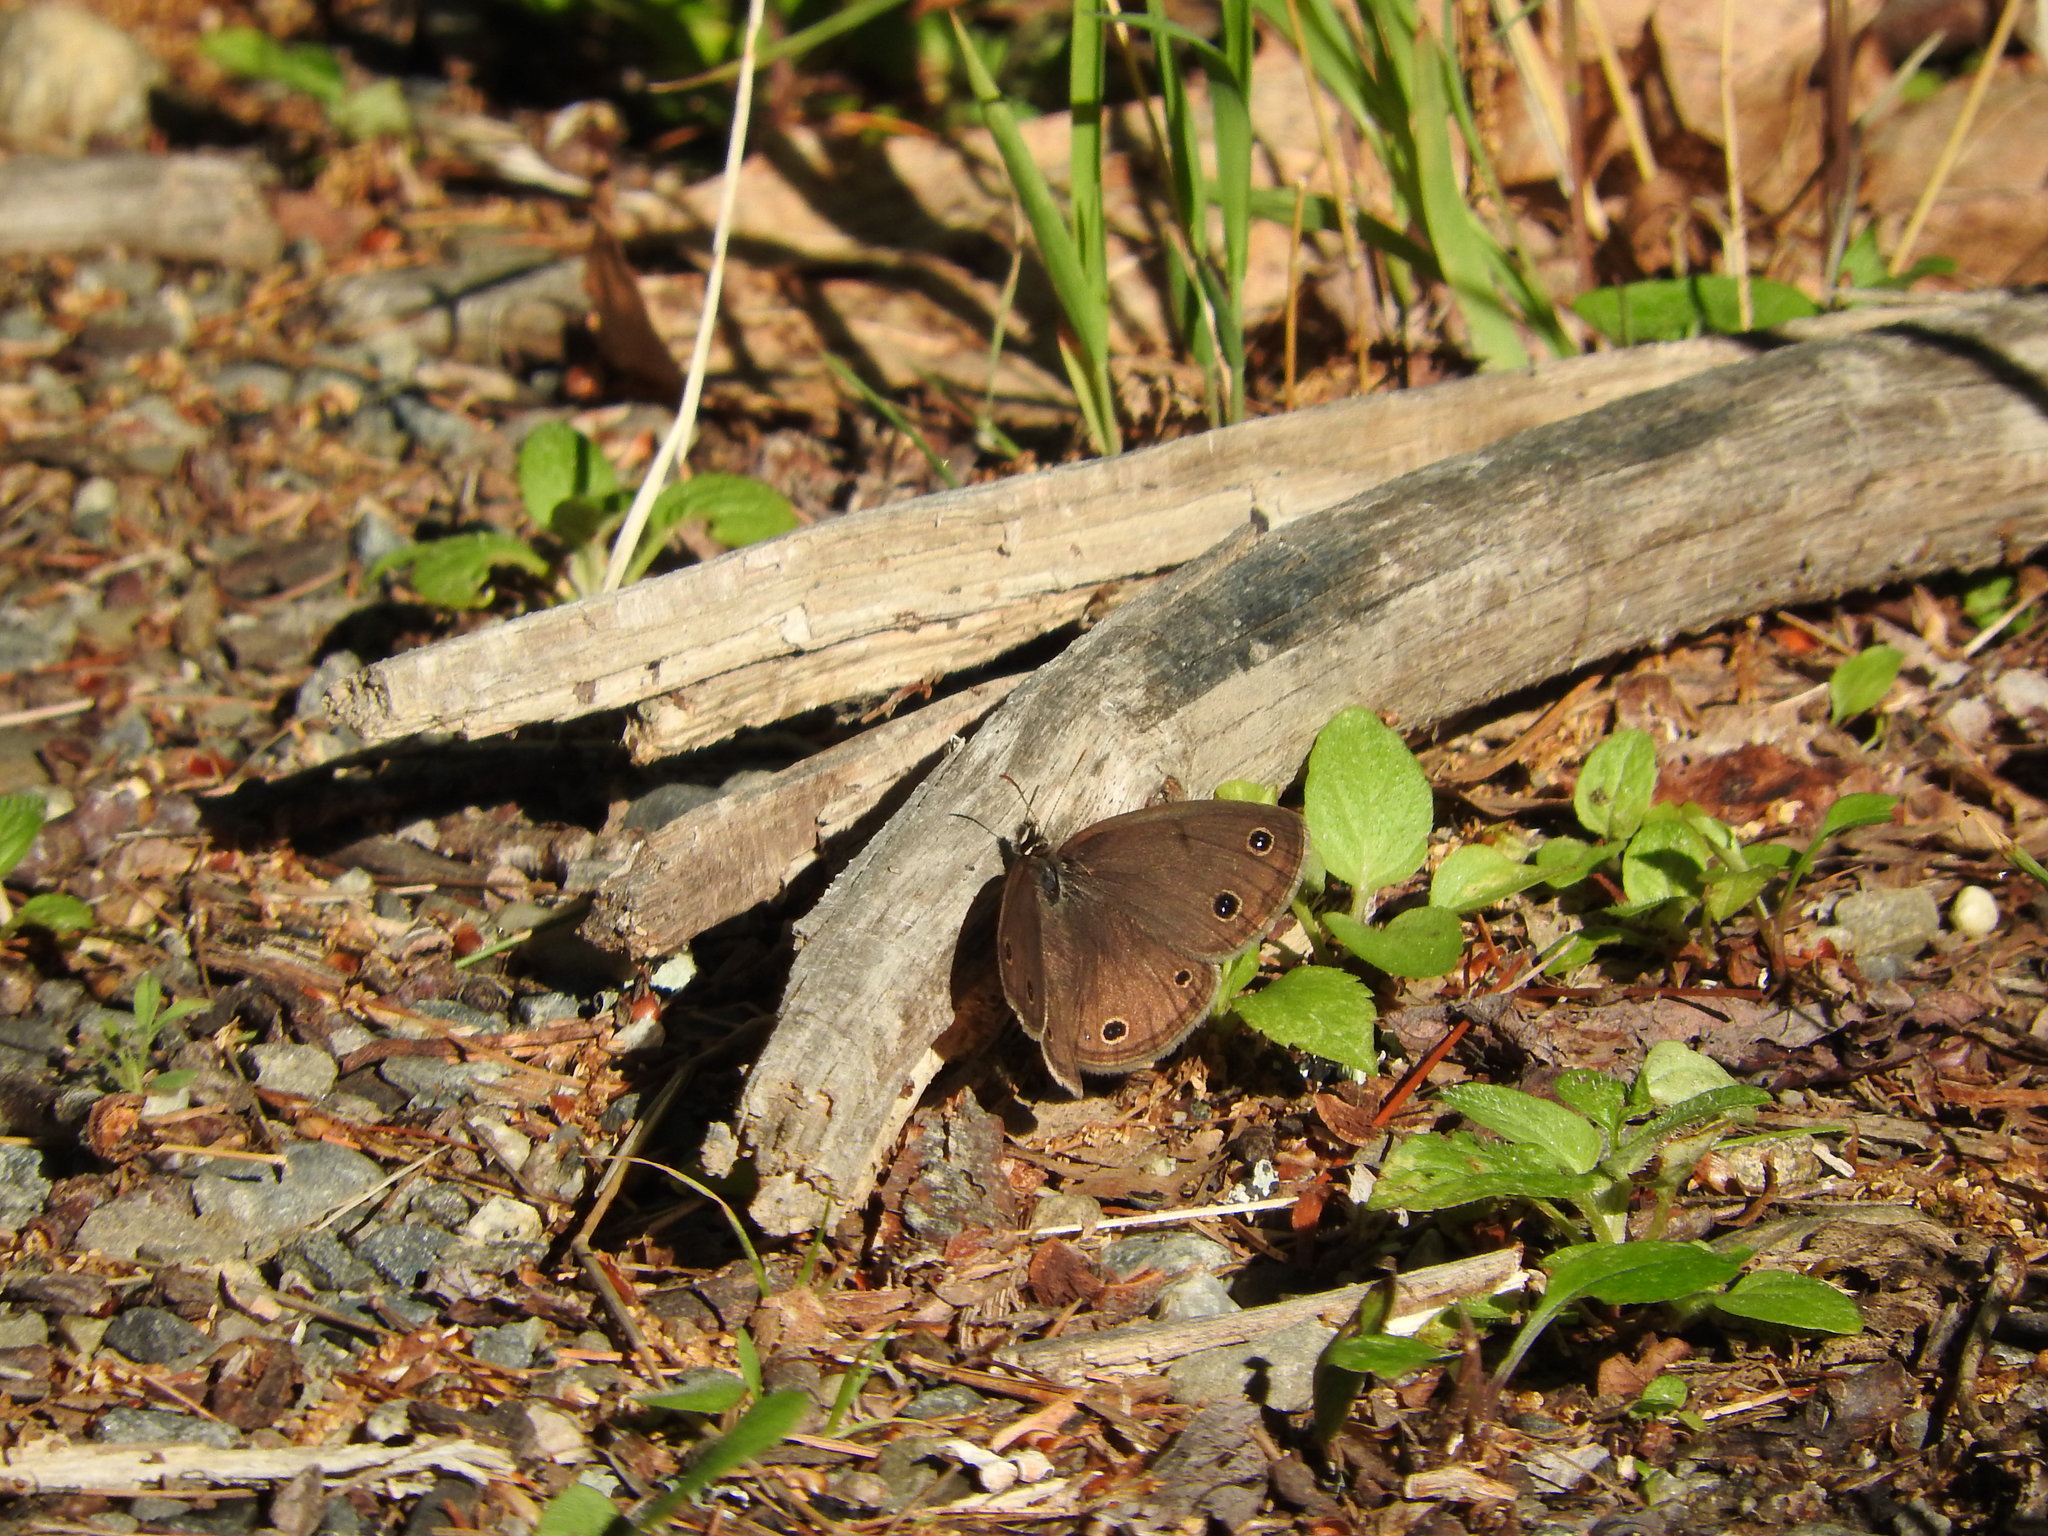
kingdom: Animalia
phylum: Arthropoda
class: Insecta
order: Lepidoptera
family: Nymphalidae
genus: Euptychia
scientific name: Euptychia cymela
